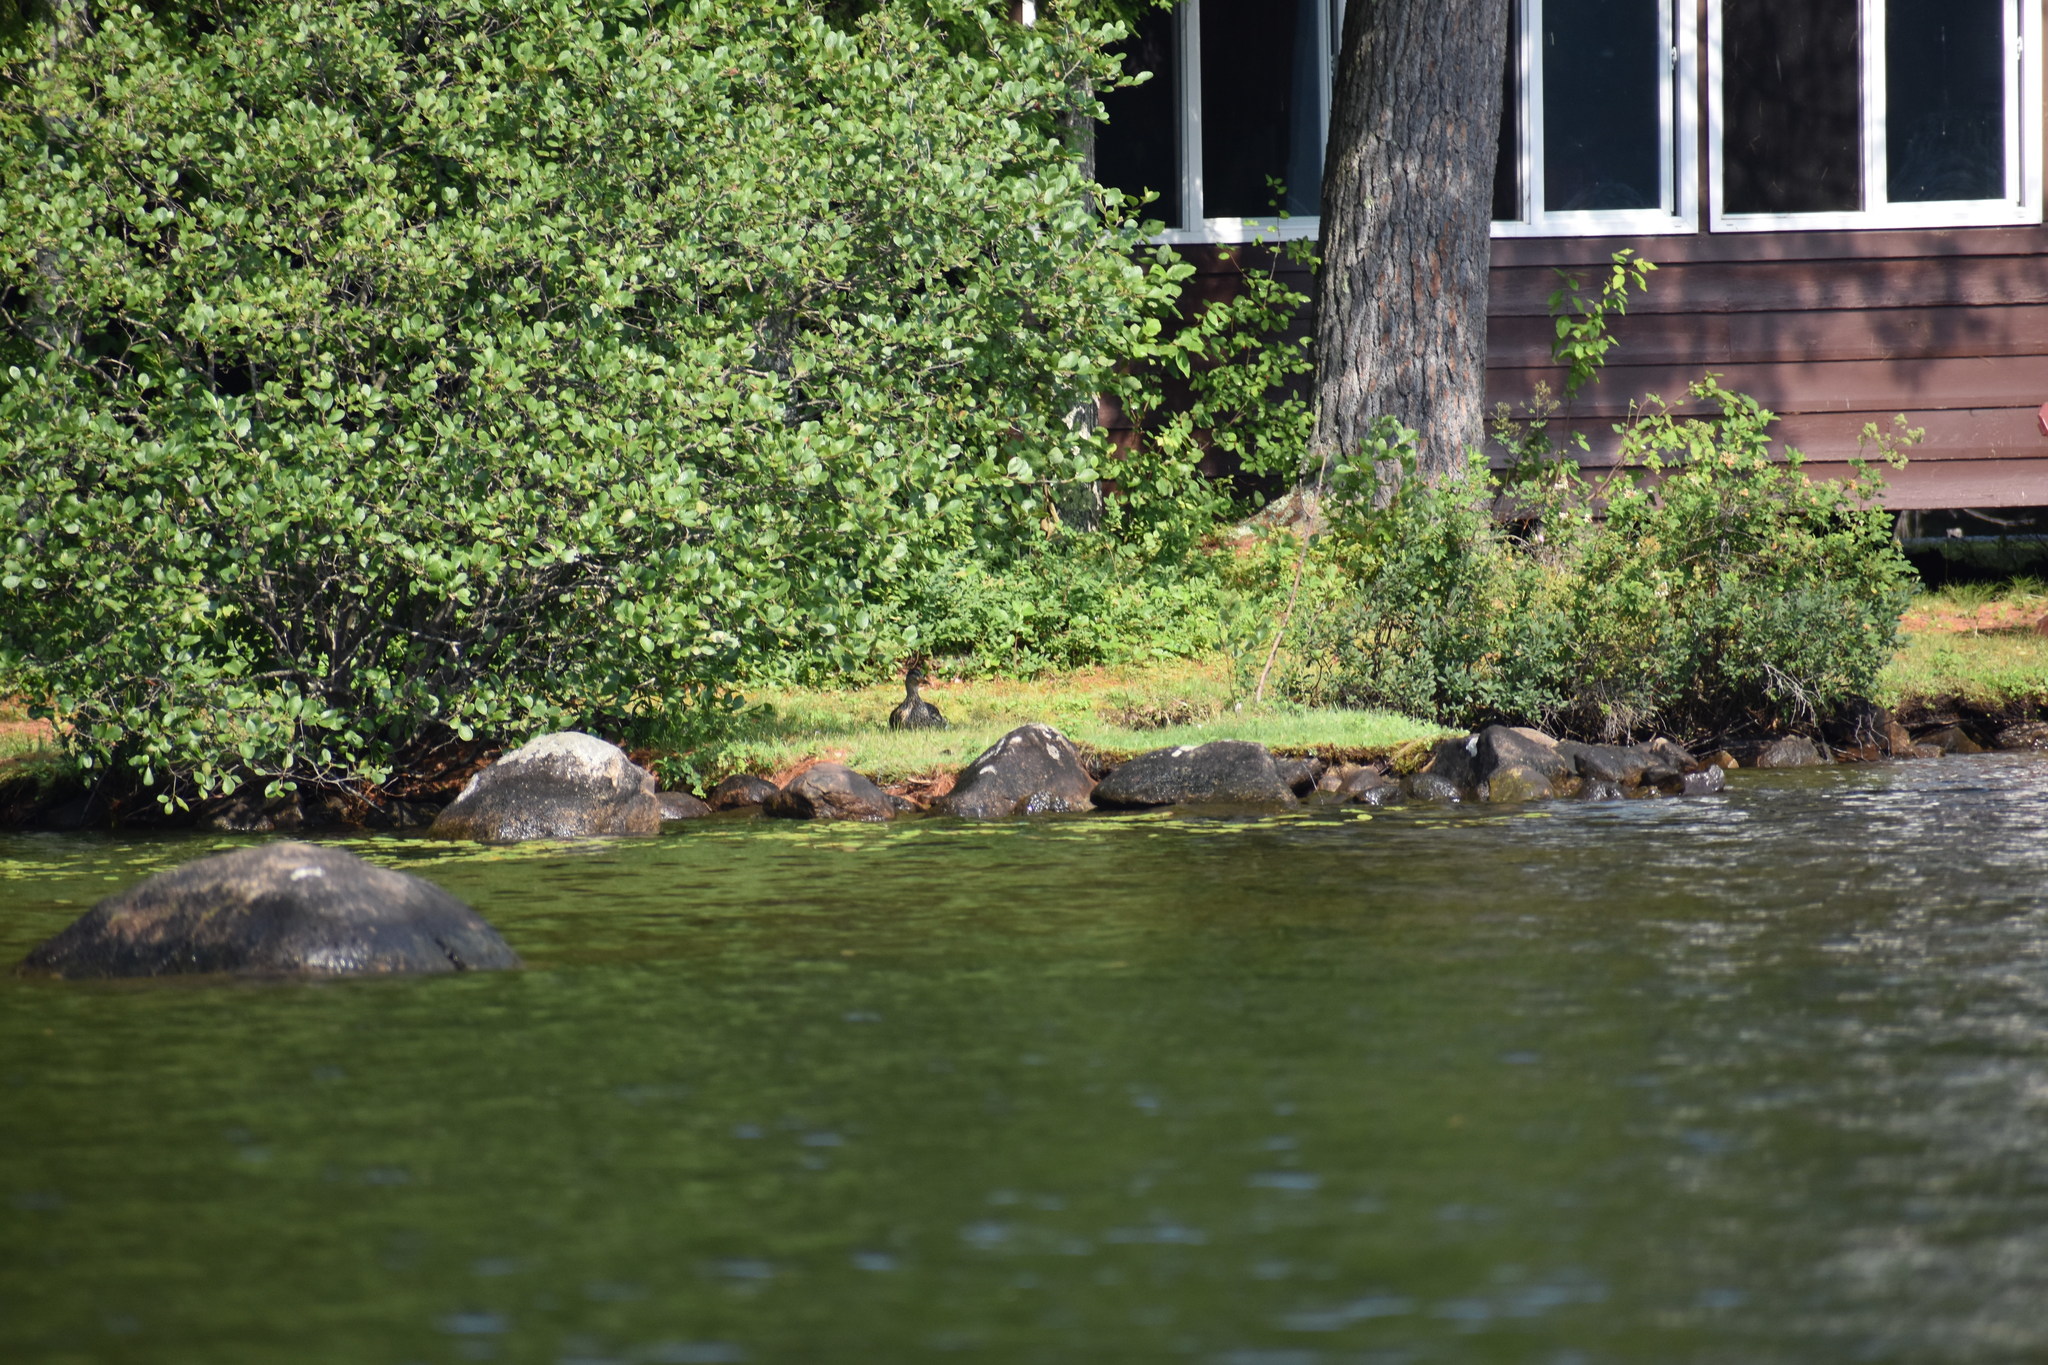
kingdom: Animalia
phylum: Chordata
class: Aves
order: Anseriformes
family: Anatidae
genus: Anas
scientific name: Anas platyrhynchos
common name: Mallard
